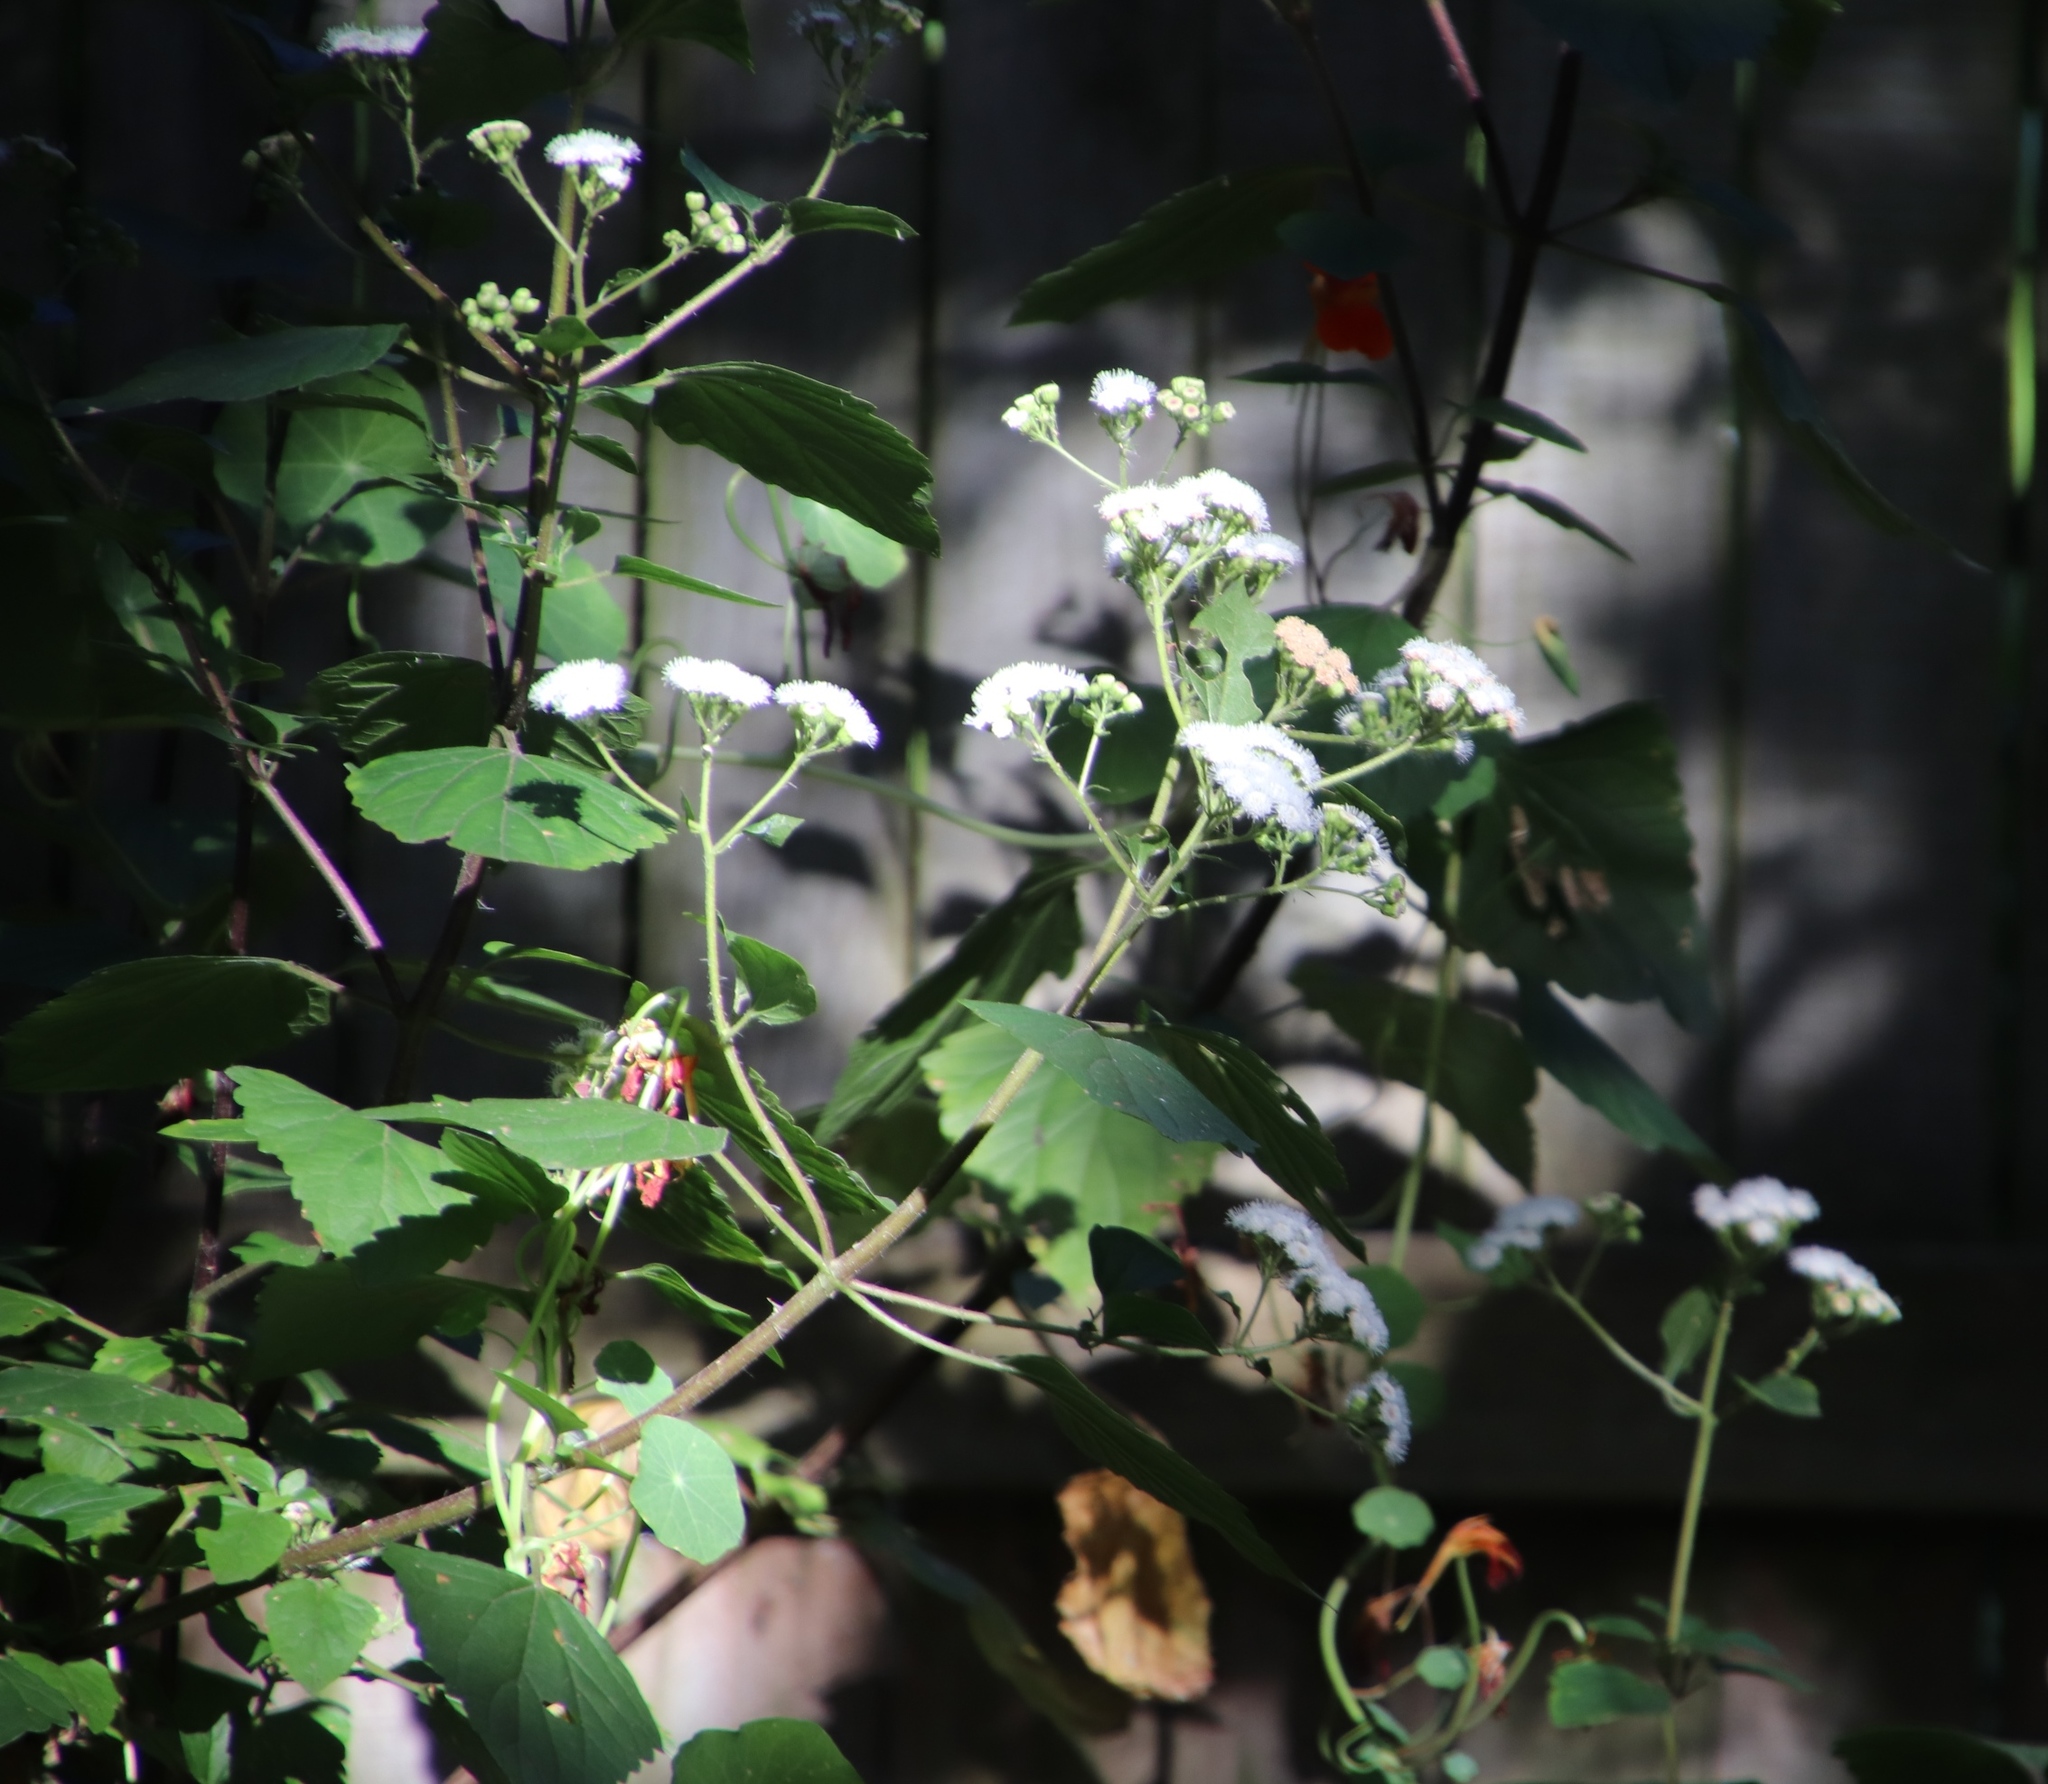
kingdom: Plantae
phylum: Tracheophyta
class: Magnoliopsida
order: Asterales
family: Asteraceae
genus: Ageratina
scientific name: Ageratina adenophora
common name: Sticky snakeroot
